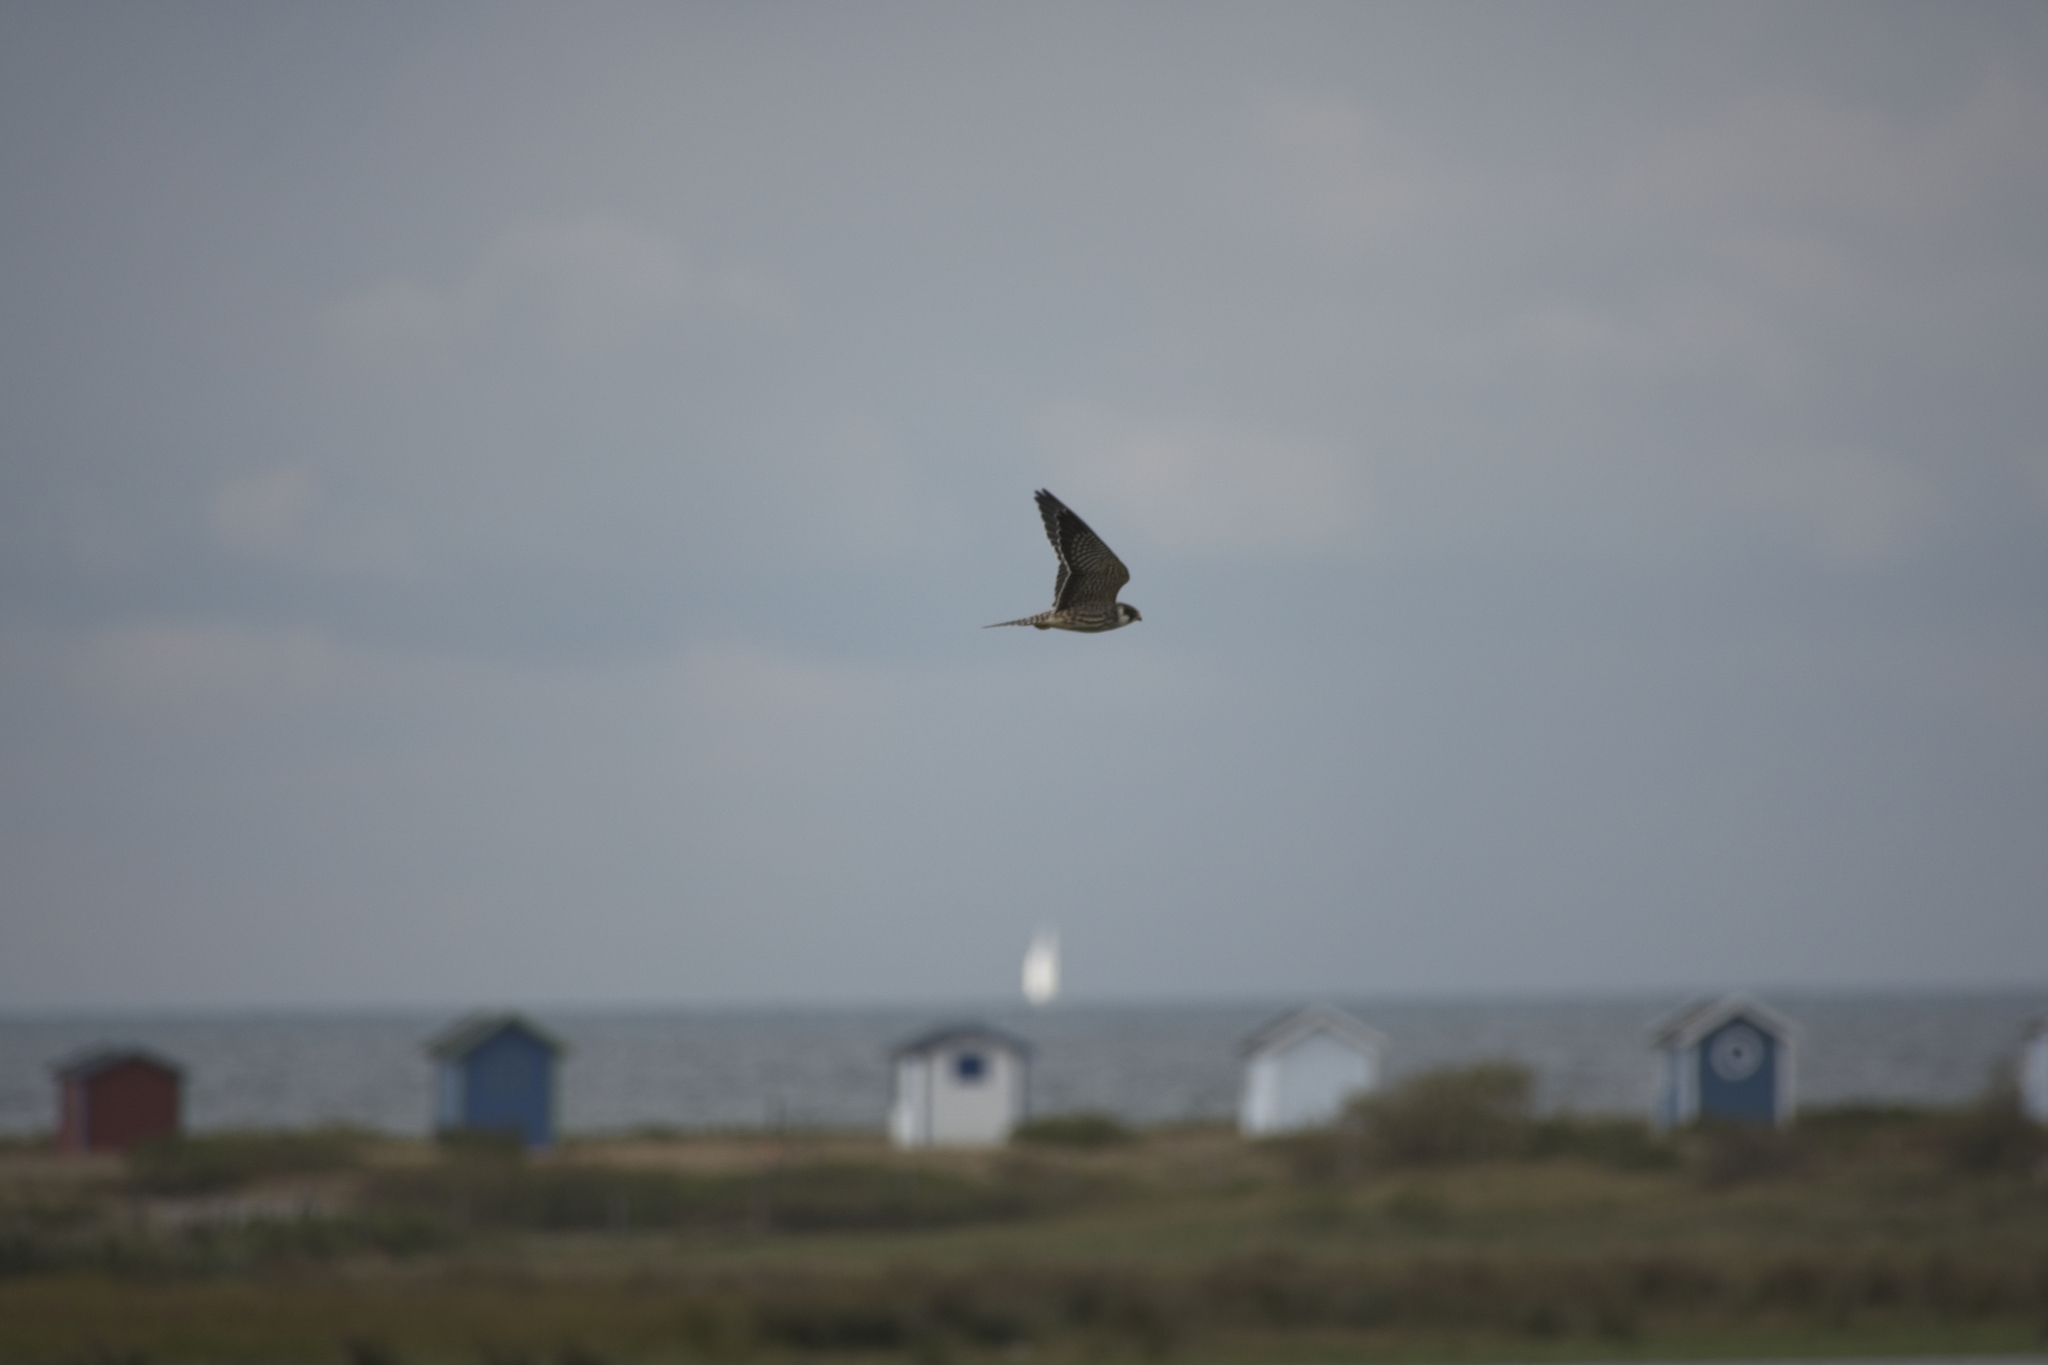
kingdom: Animalia
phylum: Chordata
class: Aves
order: Falconiformes
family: Falconidae
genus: Falco
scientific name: Falco vespertinus
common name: Red-footed falcon
